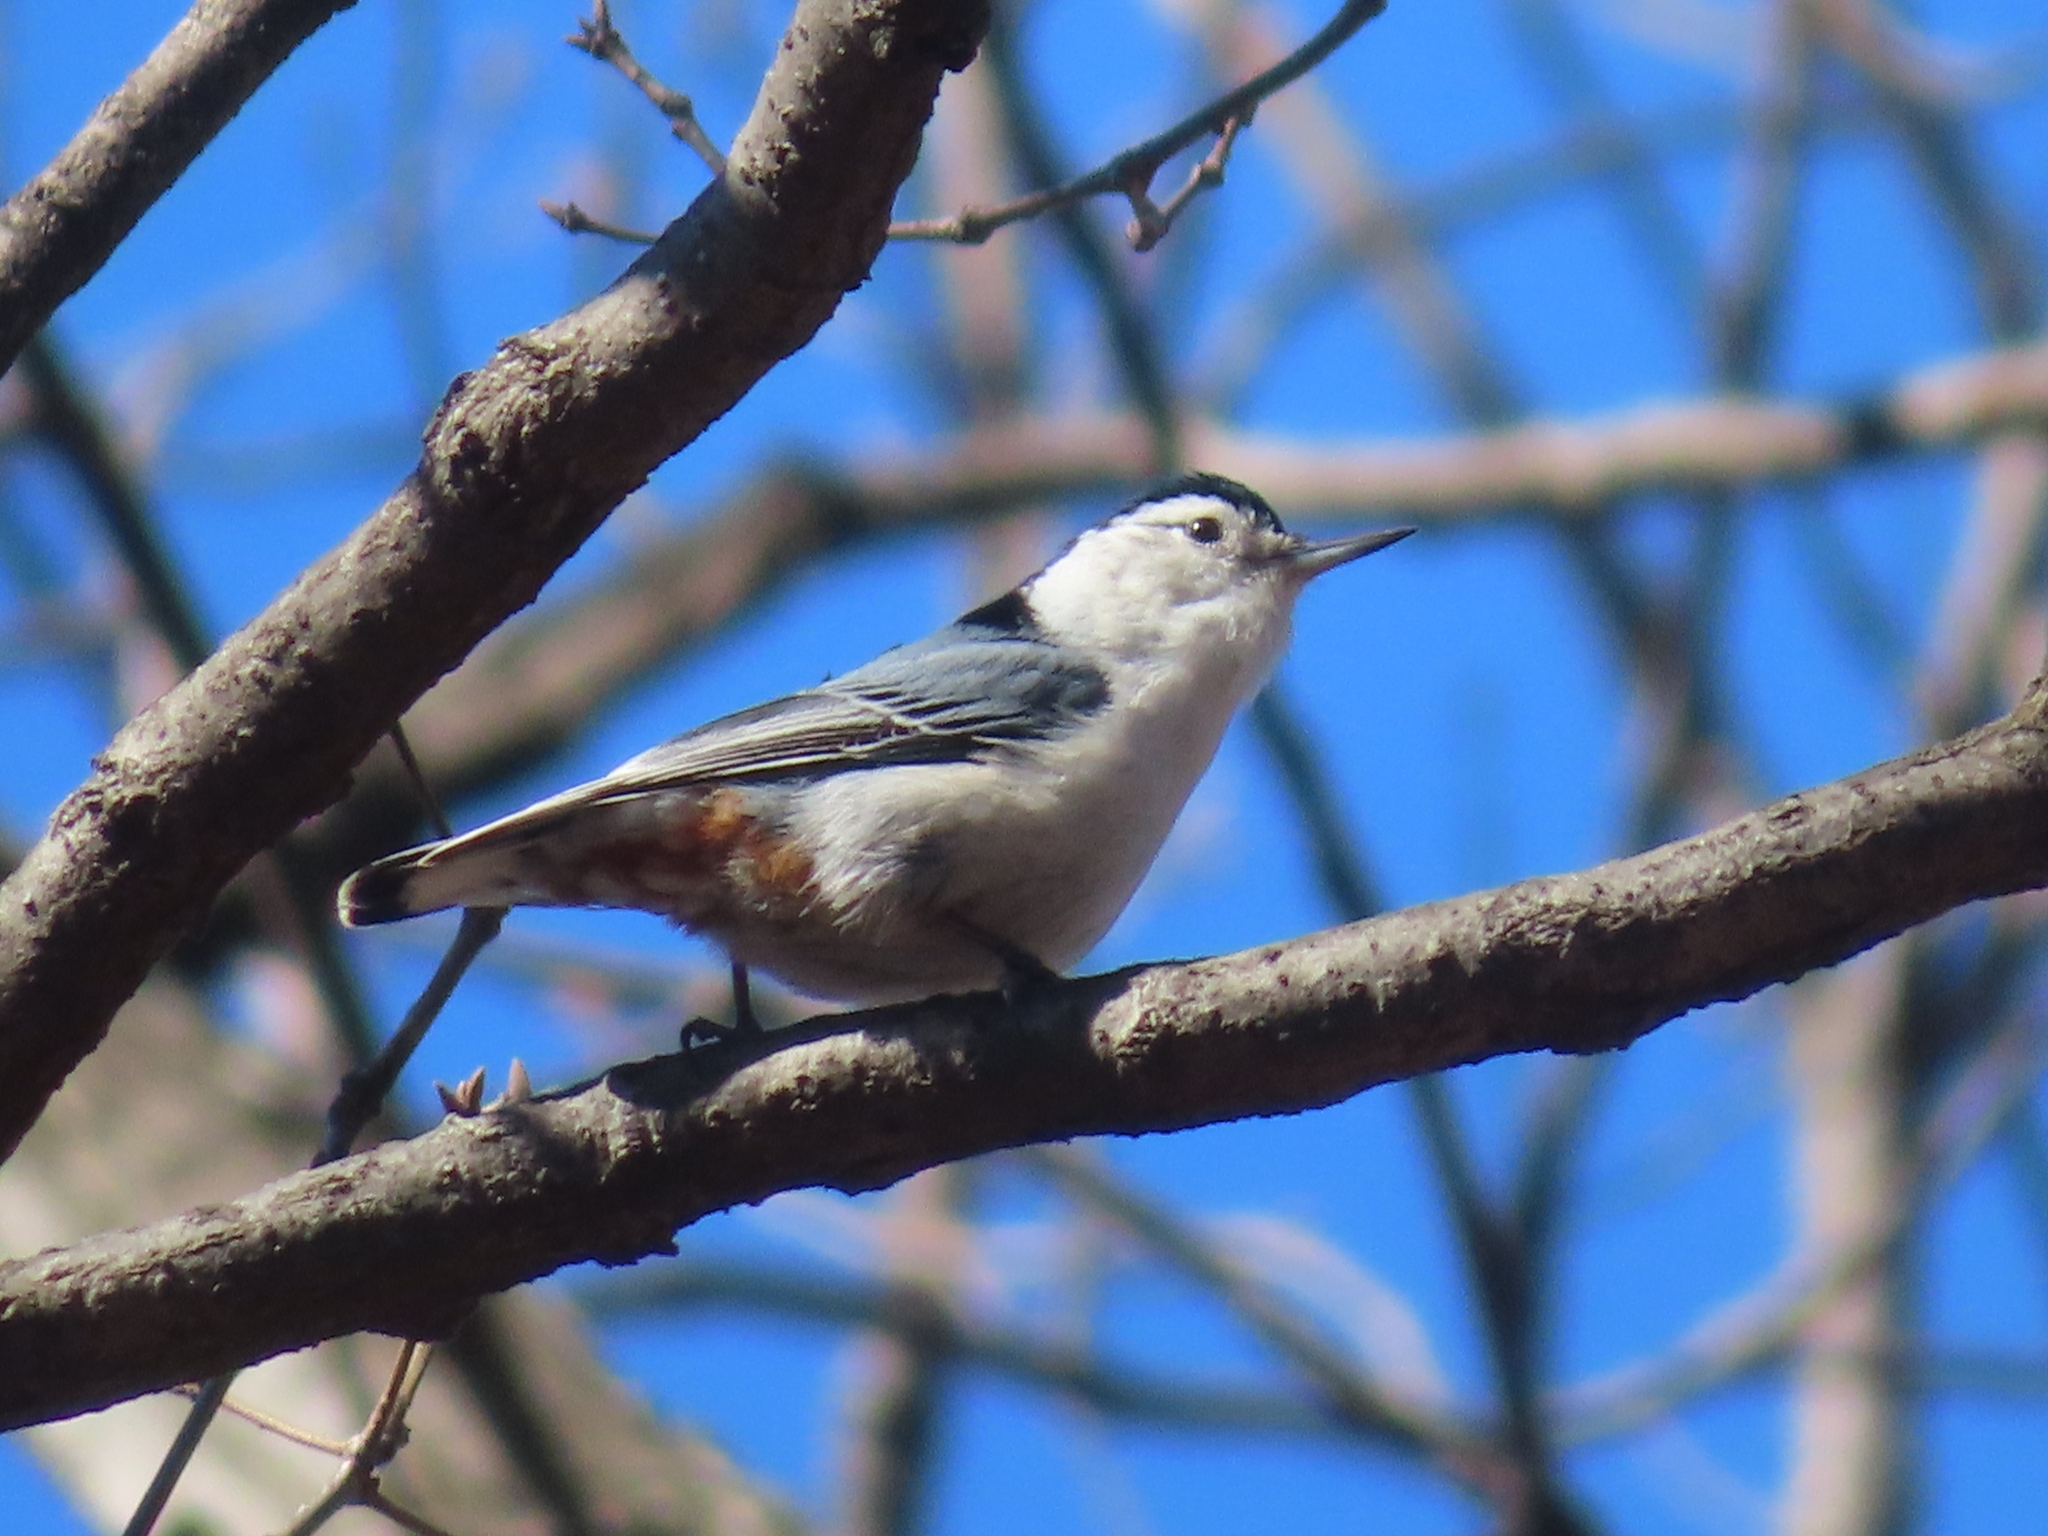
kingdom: Animalia
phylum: Chordata
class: Aves
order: Passeriformes
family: Sittidae
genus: Sitta
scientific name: Sitta carolinensis
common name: White-breasted nuthatch
